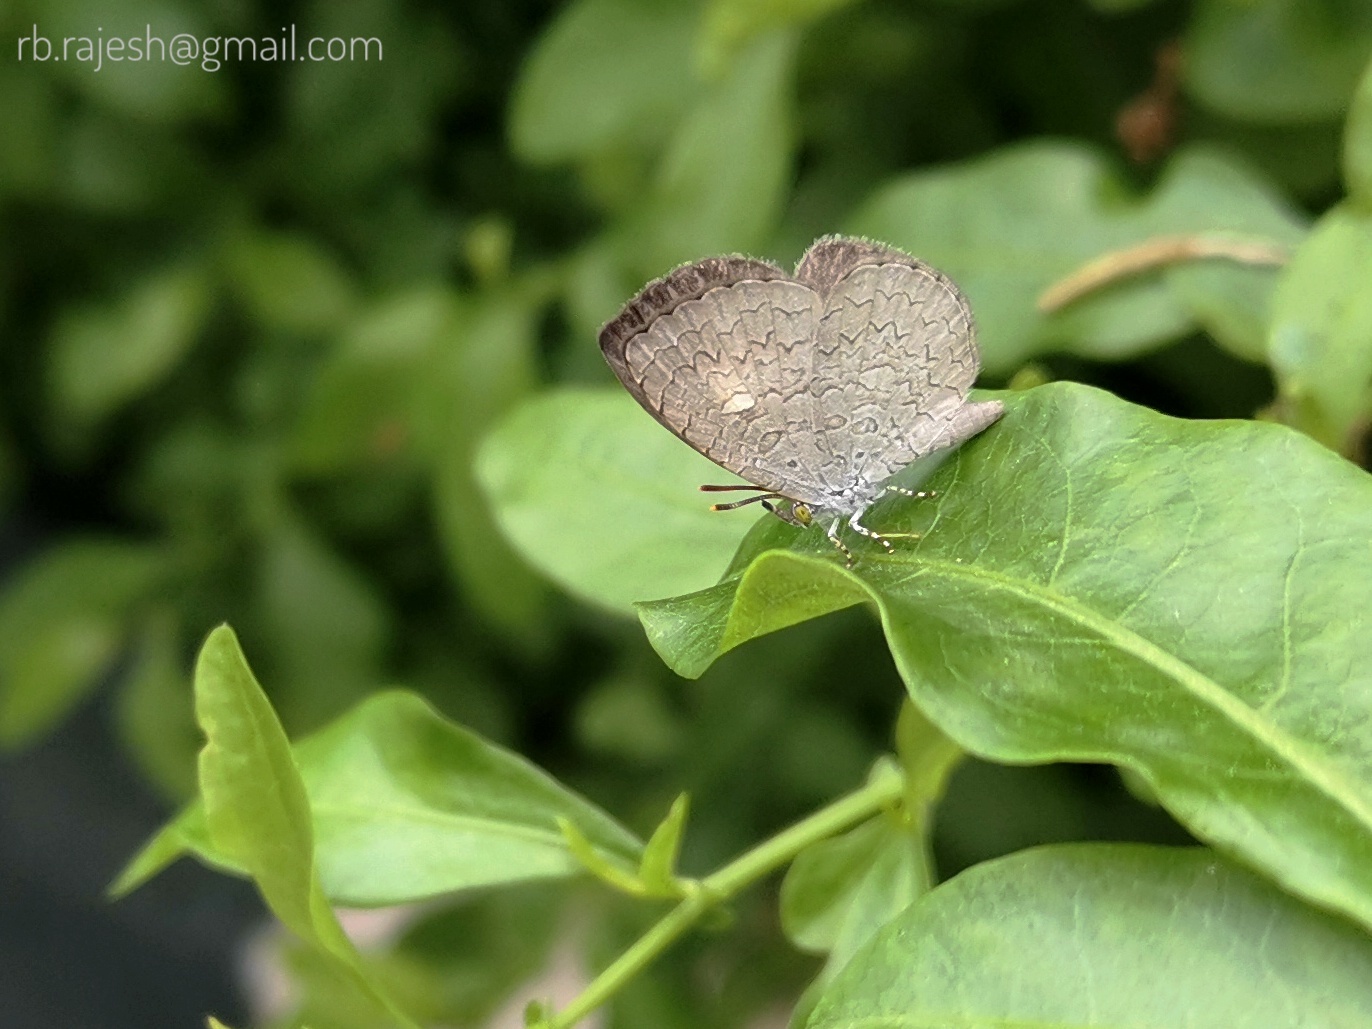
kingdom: Animalia
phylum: Arthropoda
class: Insecta
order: Lepidoptera
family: Lycaenidae
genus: Spalgis
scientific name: Spalgis epius
